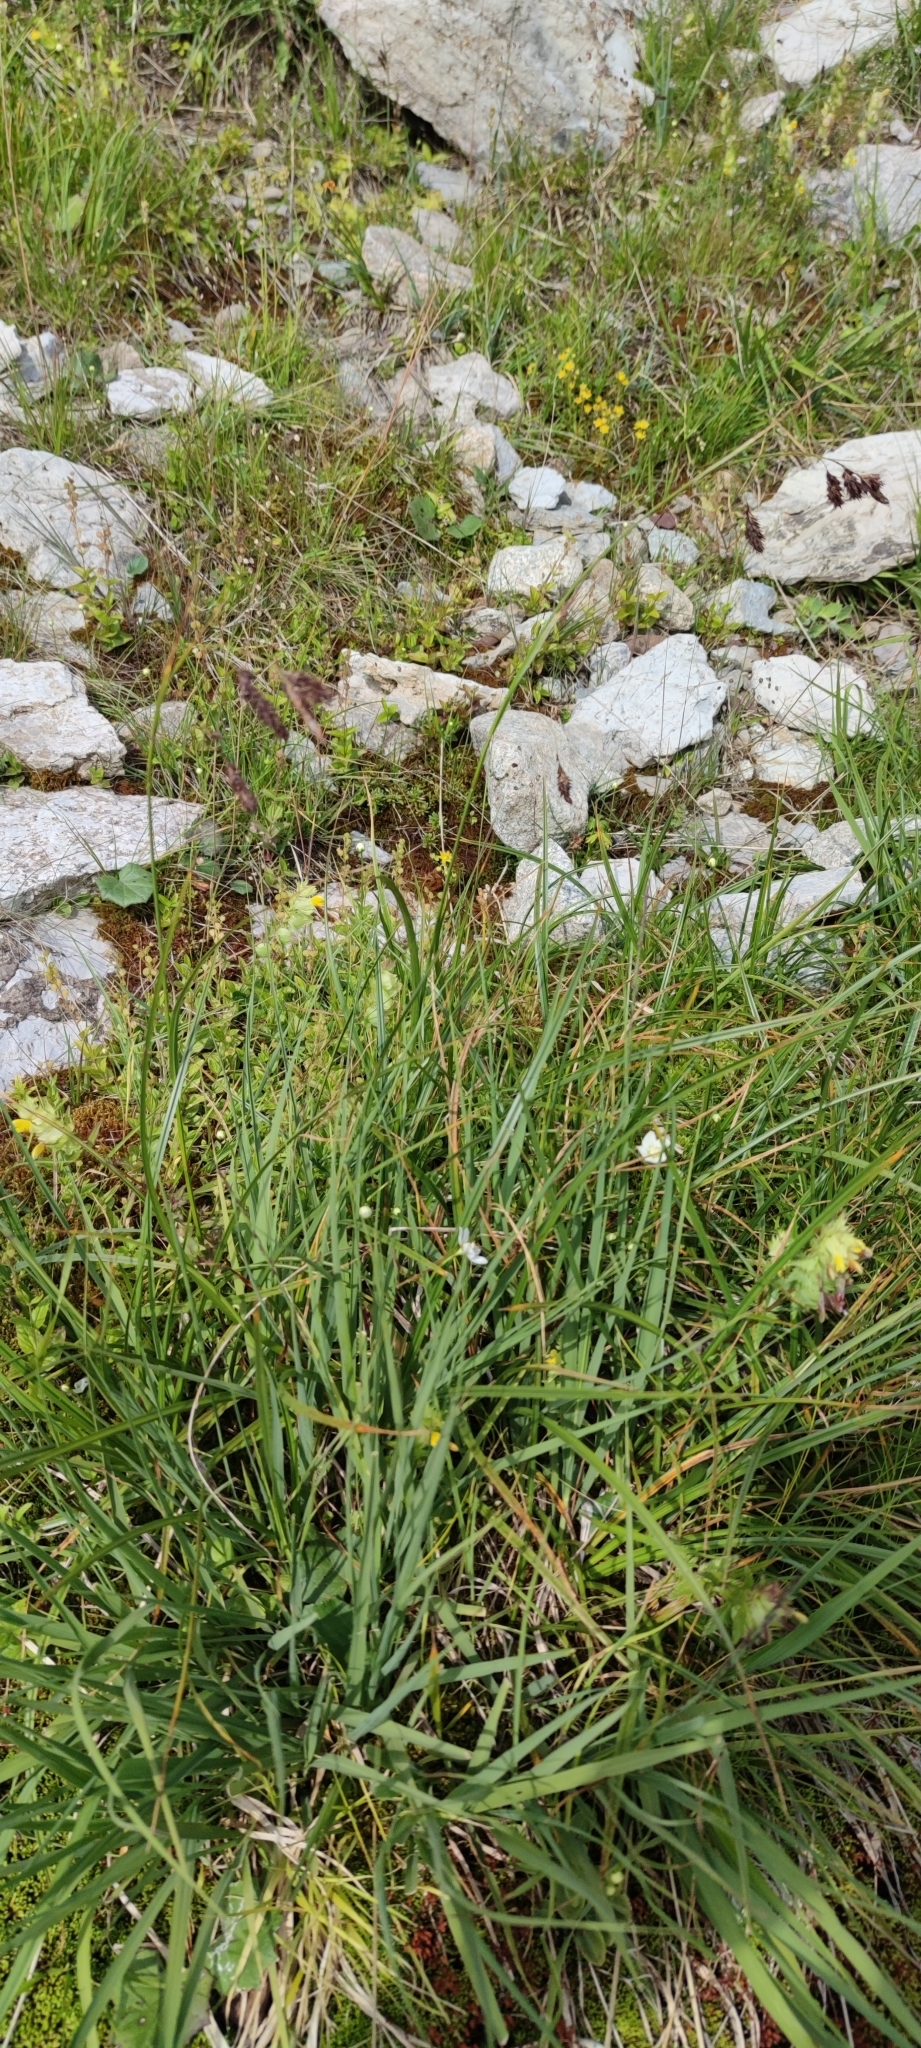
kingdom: Plantae
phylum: Tracheophyta
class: Liliopsida
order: Poales
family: Cyperaceae
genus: Carex
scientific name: Carex frigida
